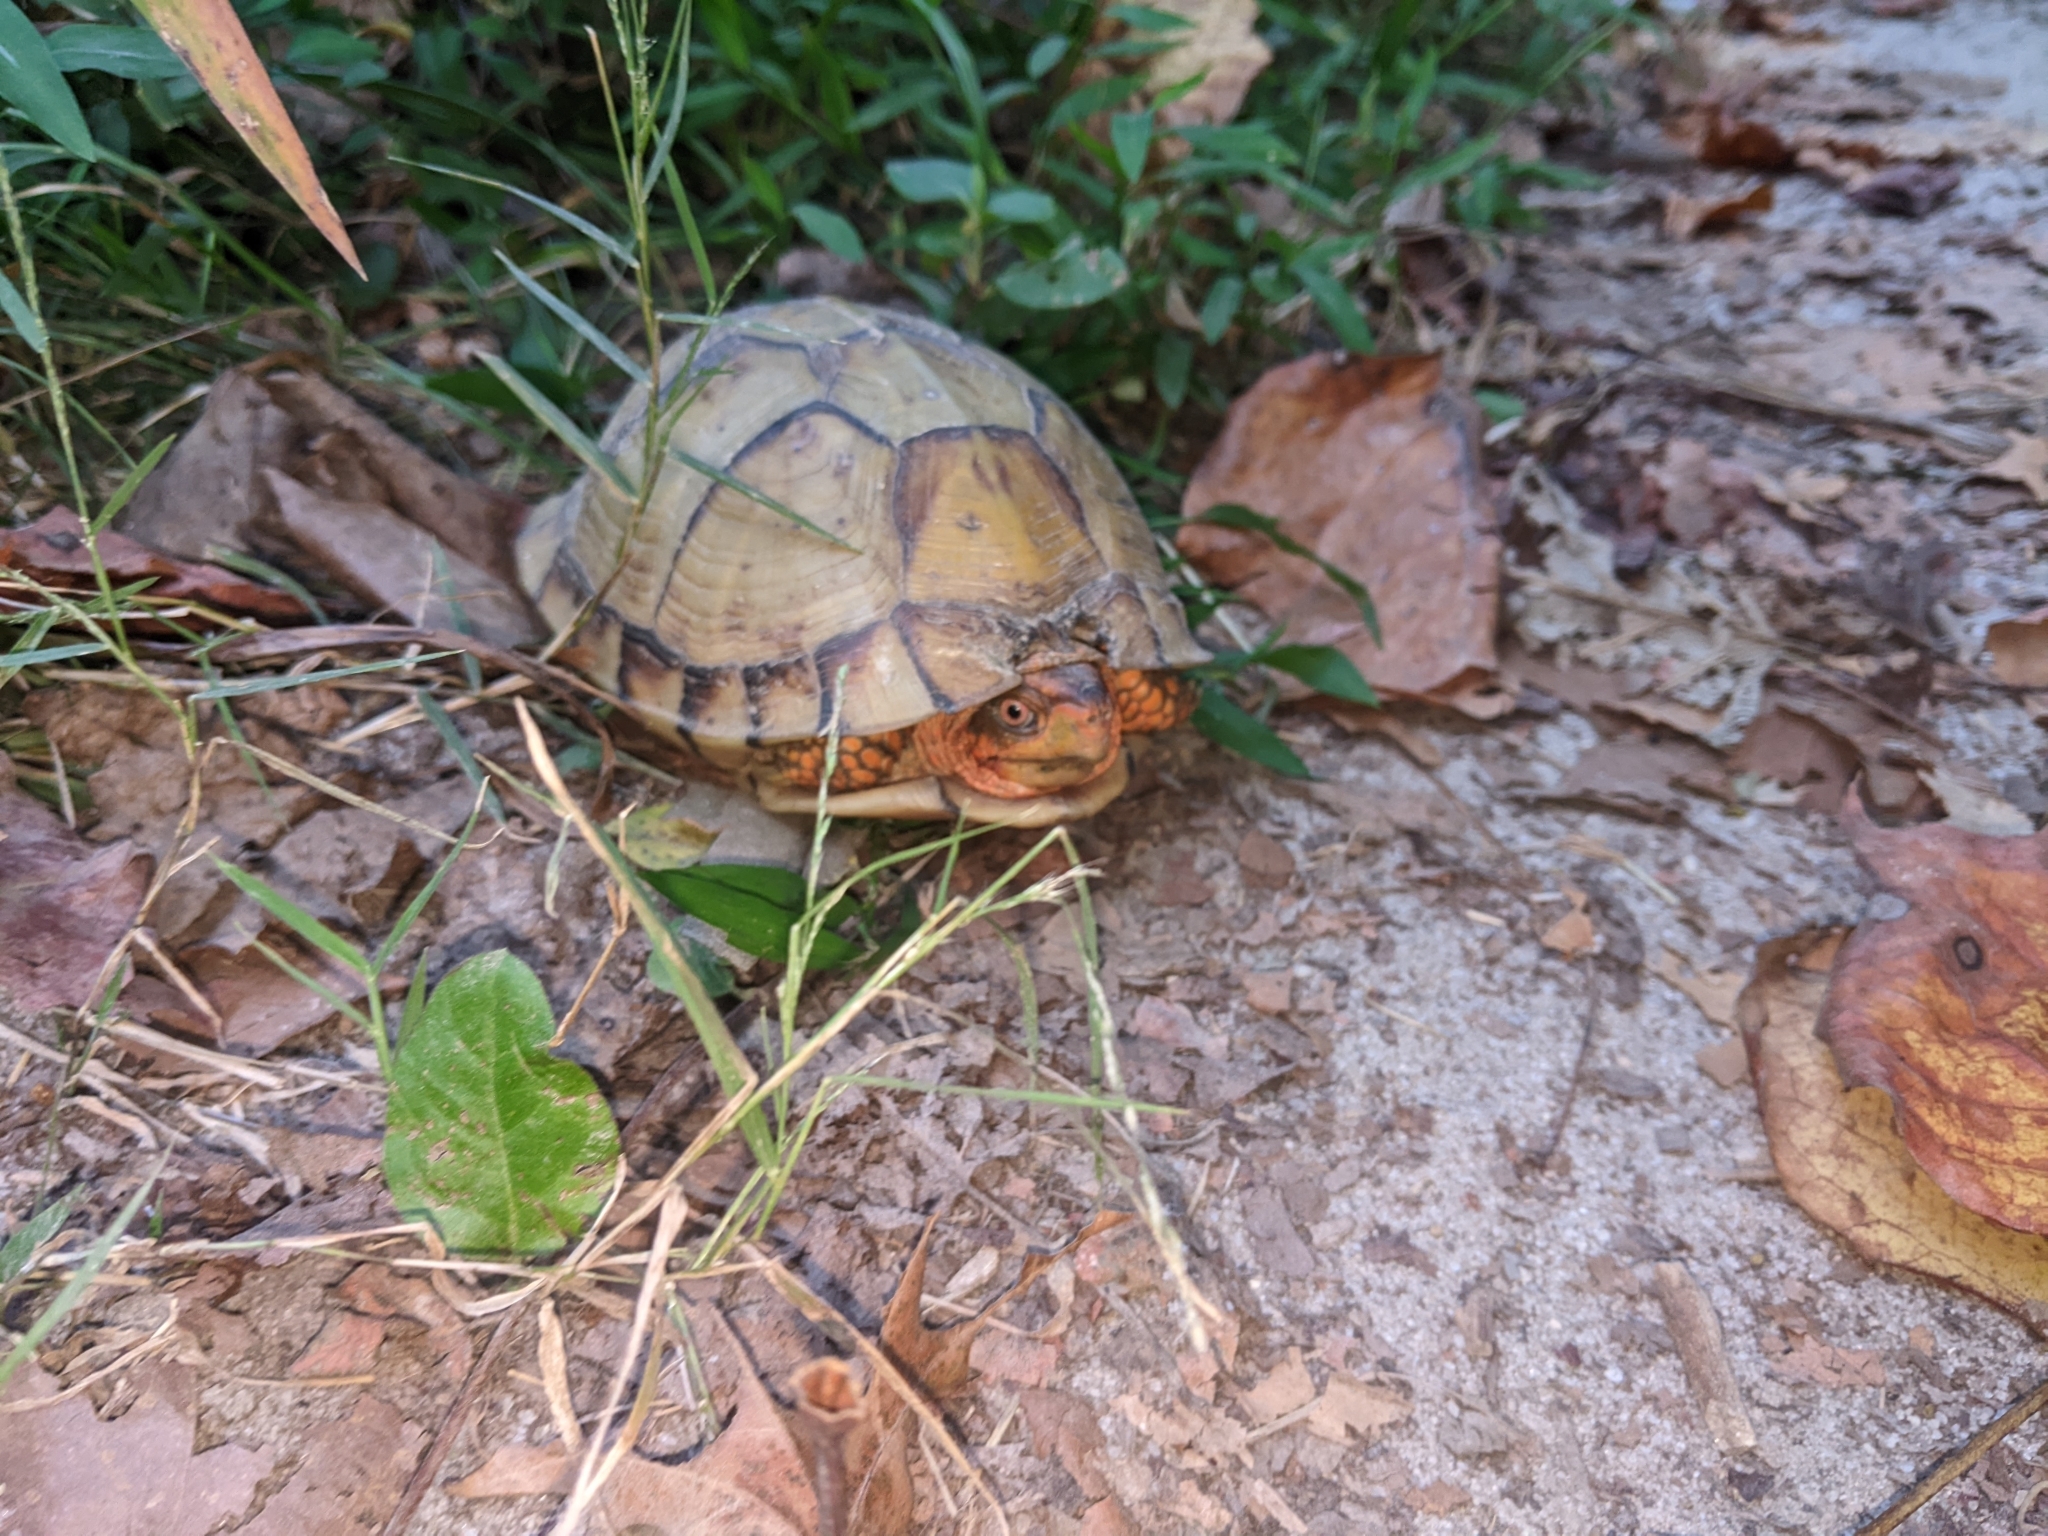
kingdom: Animalia
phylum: Chordata
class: Testudines
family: Emydidae
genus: Terrapene
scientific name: Terrapene carolina
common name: Common box turtle
